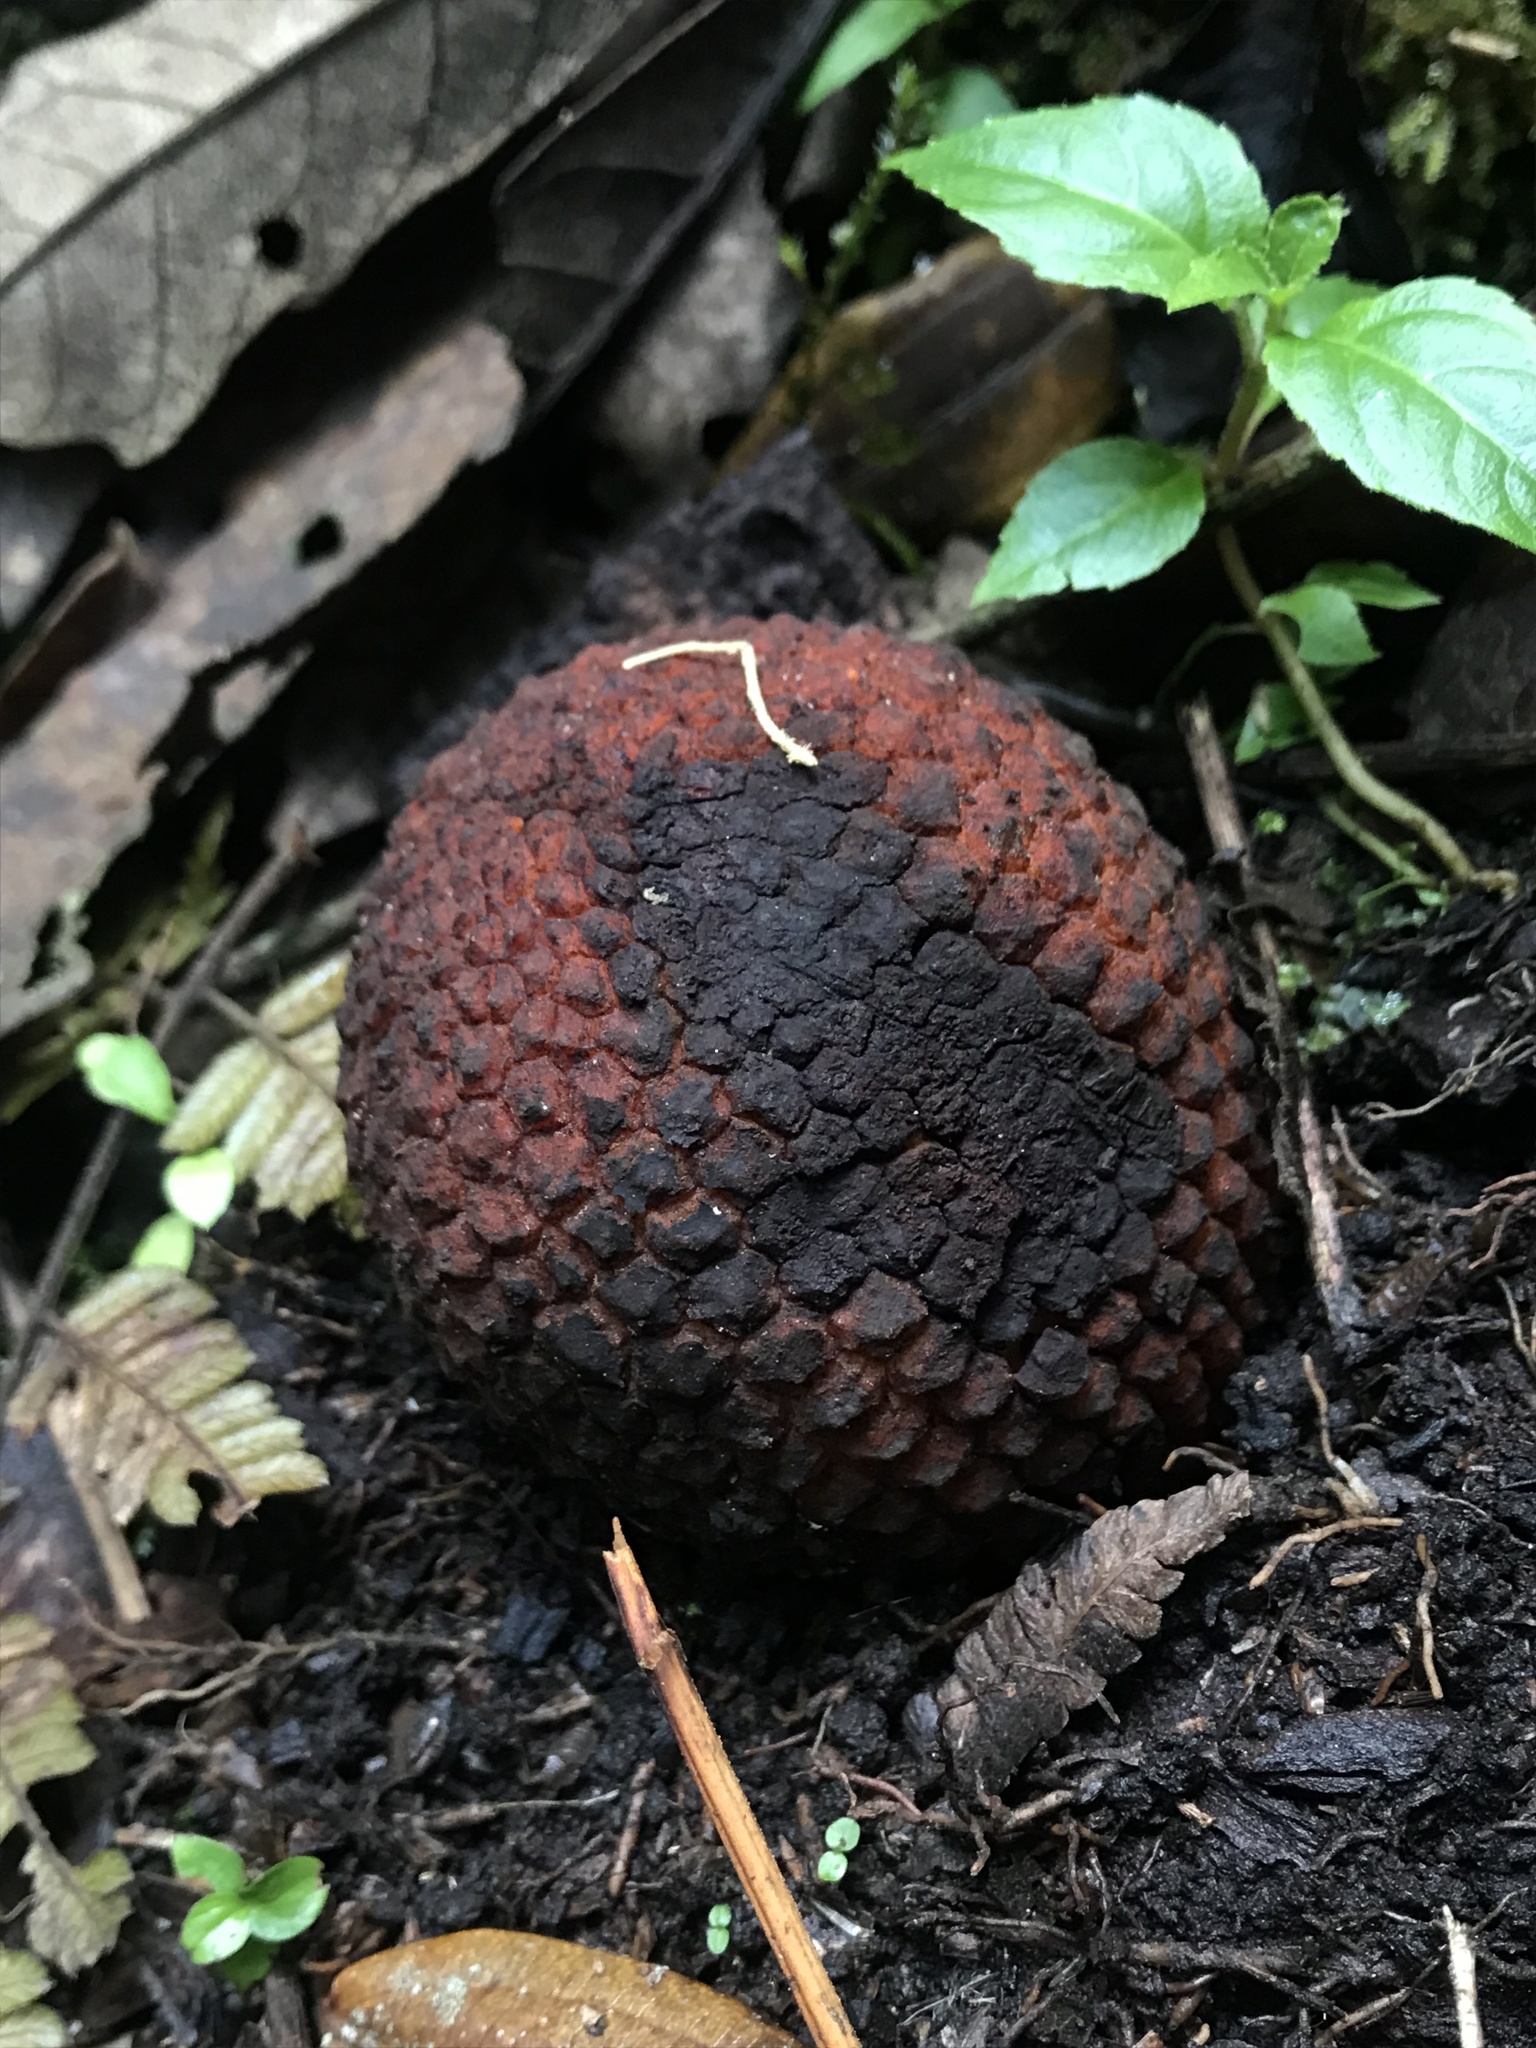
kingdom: Plantae
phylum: Tracheophyta
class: Magnoliopsida
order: Santalales
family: Balanophoraceae
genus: Corynaea
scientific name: Corynaea crassa
